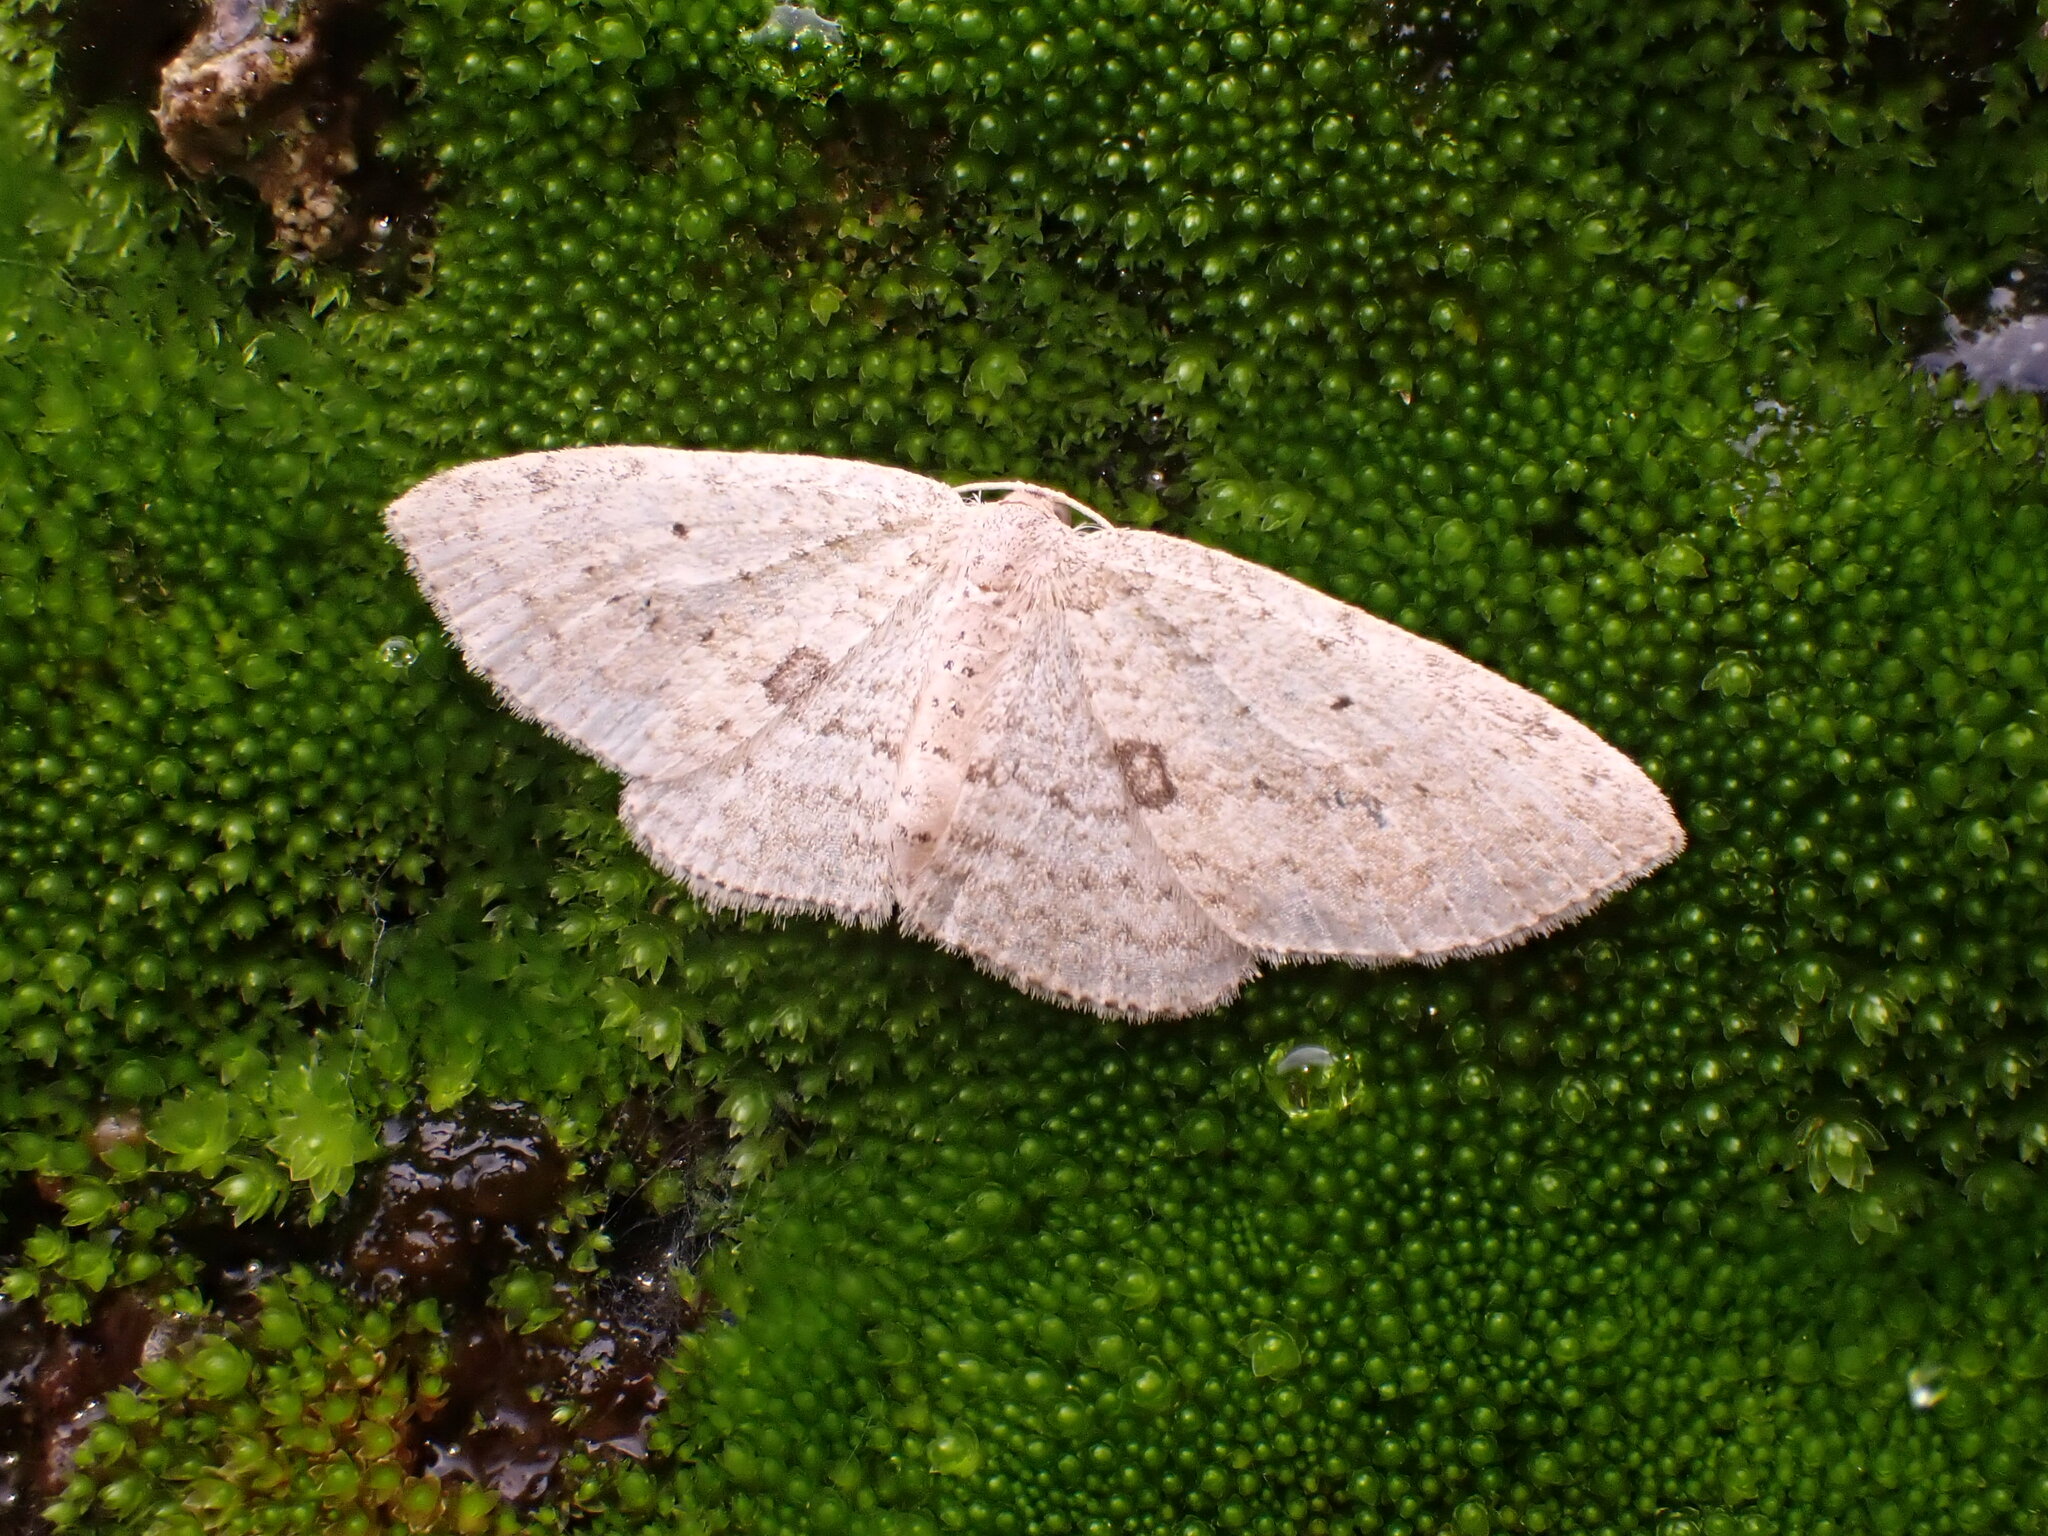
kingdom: Animalia
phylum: Arthropoda
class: Insecta
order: Lepidoptera
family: Geometridae
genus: Poecilasthena
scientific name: Poecilasthena schistaria
